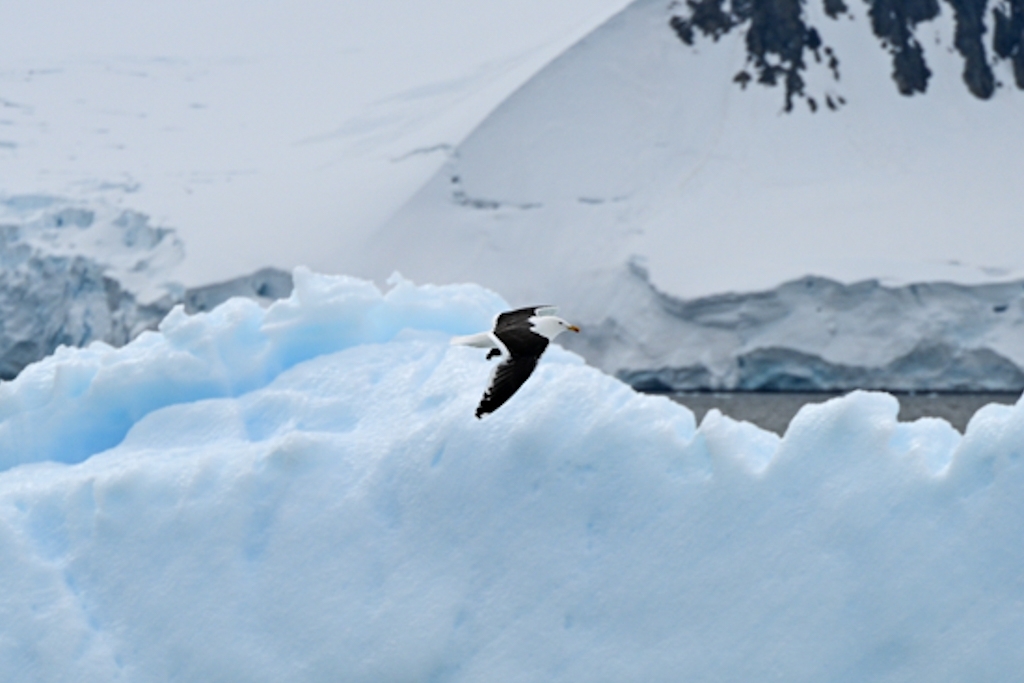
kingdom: Animalia
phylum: Chordata
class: Aves
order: Charadriiformes
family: Laridae
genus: Larus
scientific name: Larus dominicanus
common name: Kelp gull
